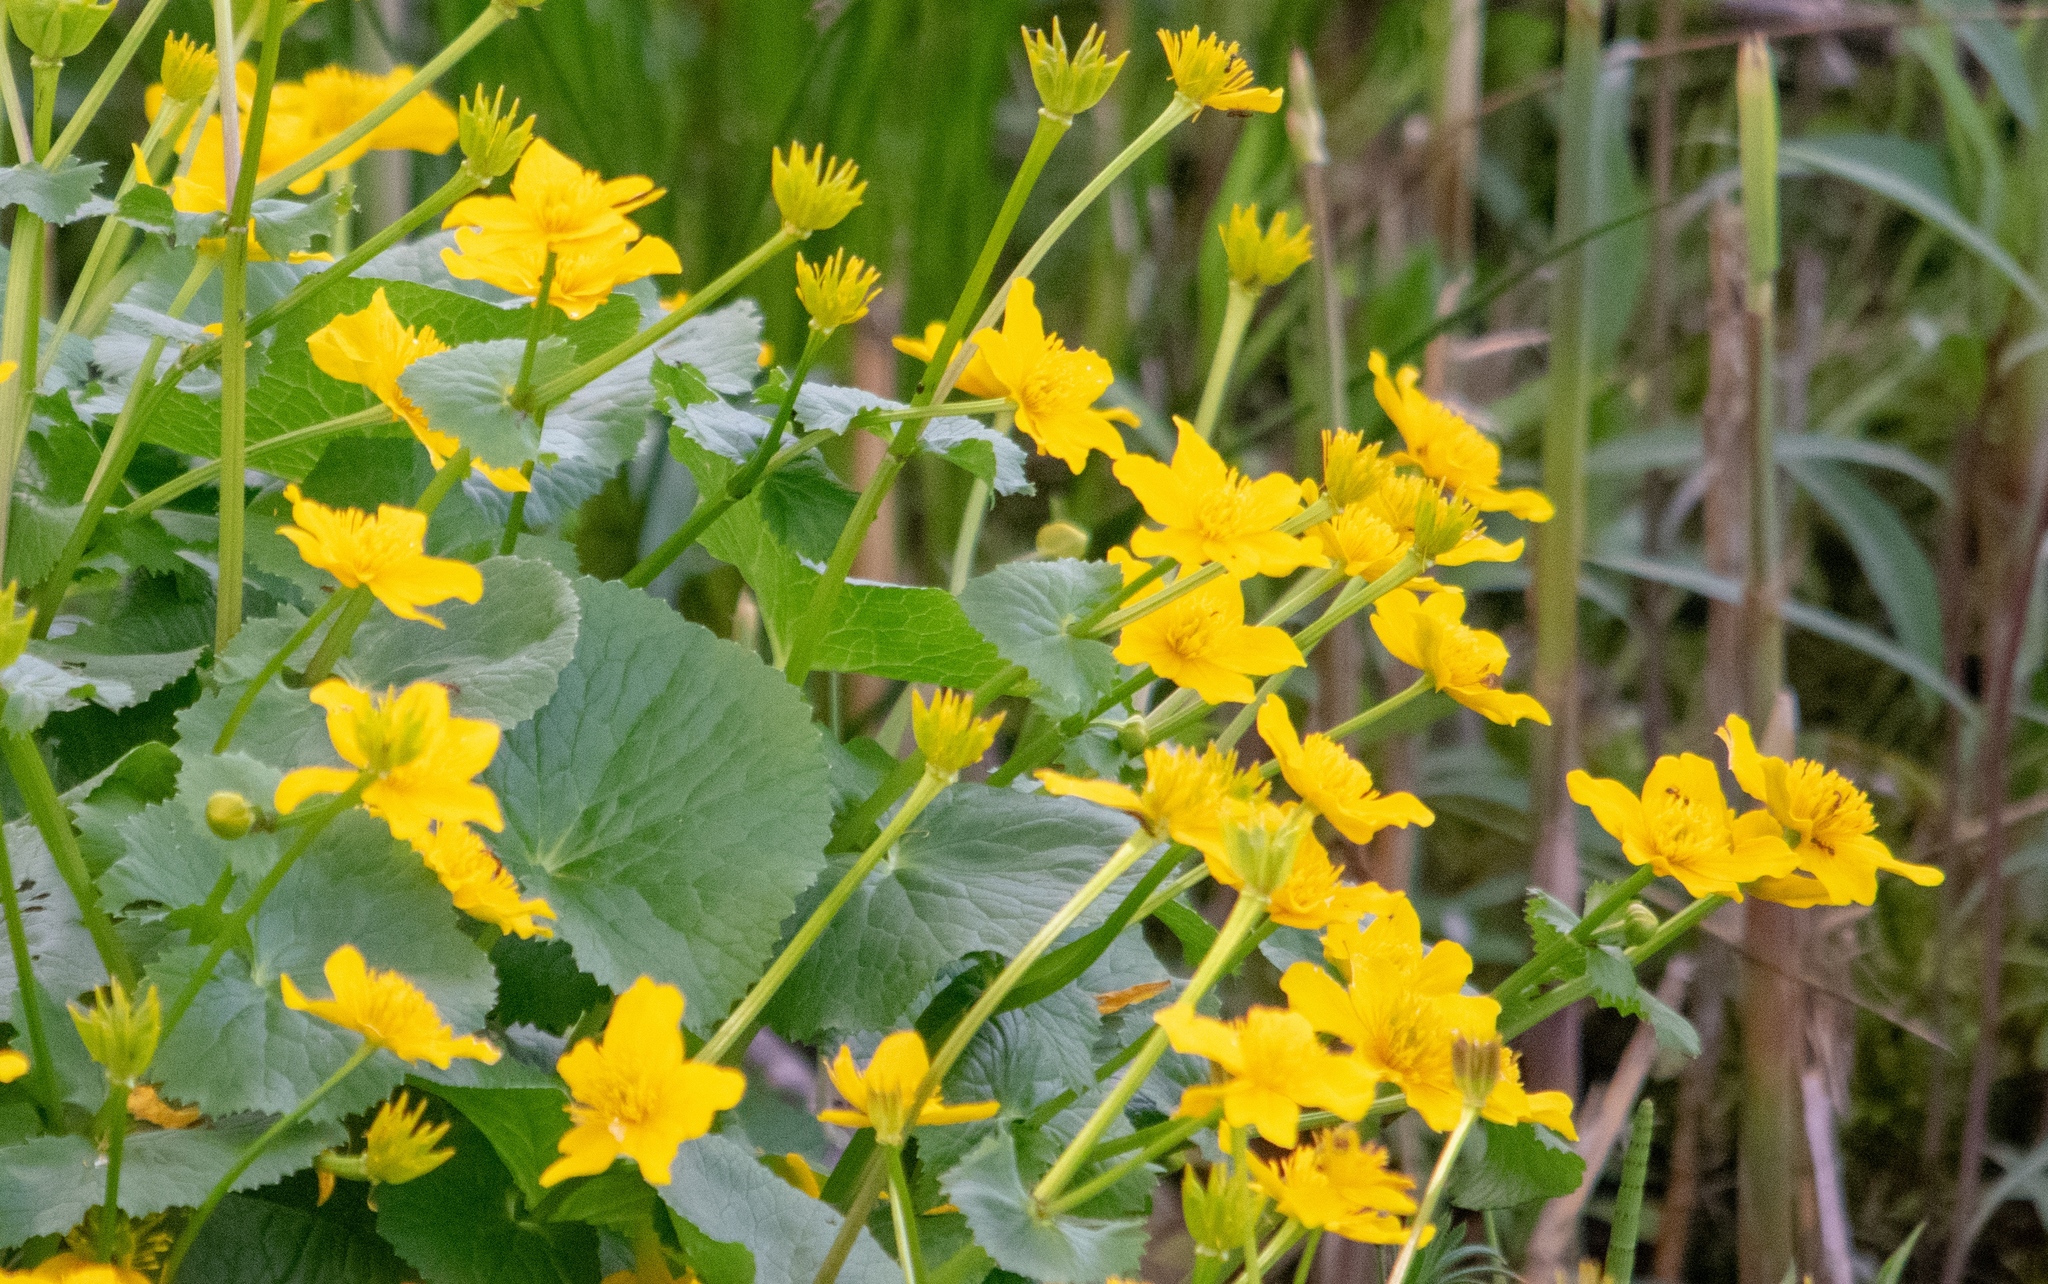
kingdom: Plantae
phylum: Tracheophyta
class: Magnoliopsida
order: Ranunculales
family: Ranunculaceae
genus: Caltha
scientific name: Caltha palustris
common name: Marsh marigold
